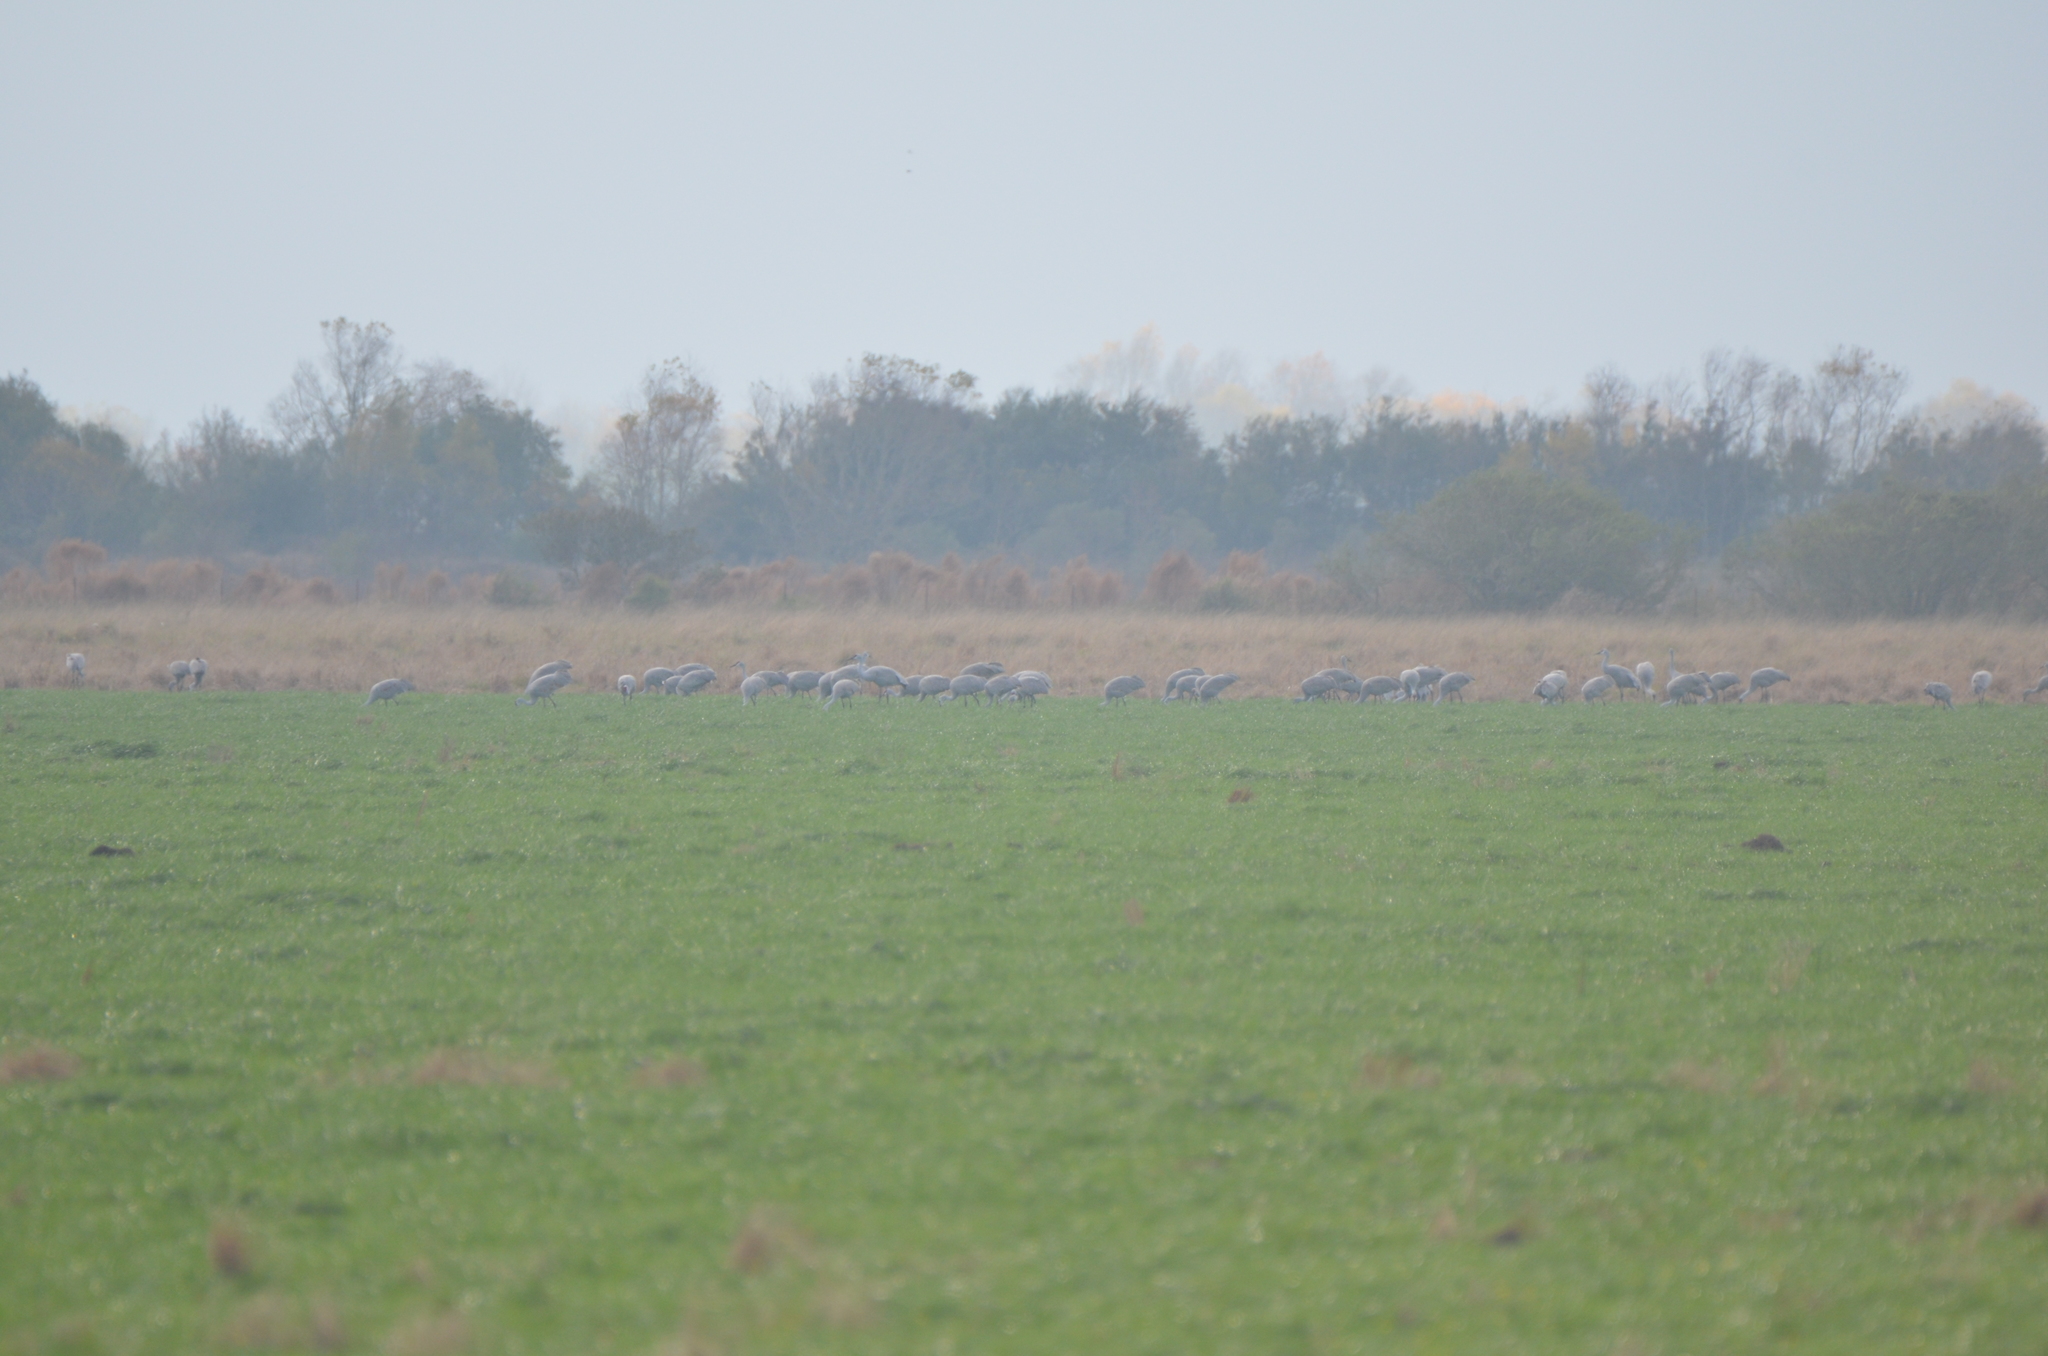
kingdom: Animalia
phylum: Chordata
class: Aves
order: Gruiformes
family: Gruidae
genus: Grus
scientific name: Grus canadensis
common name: Sandhill crane
